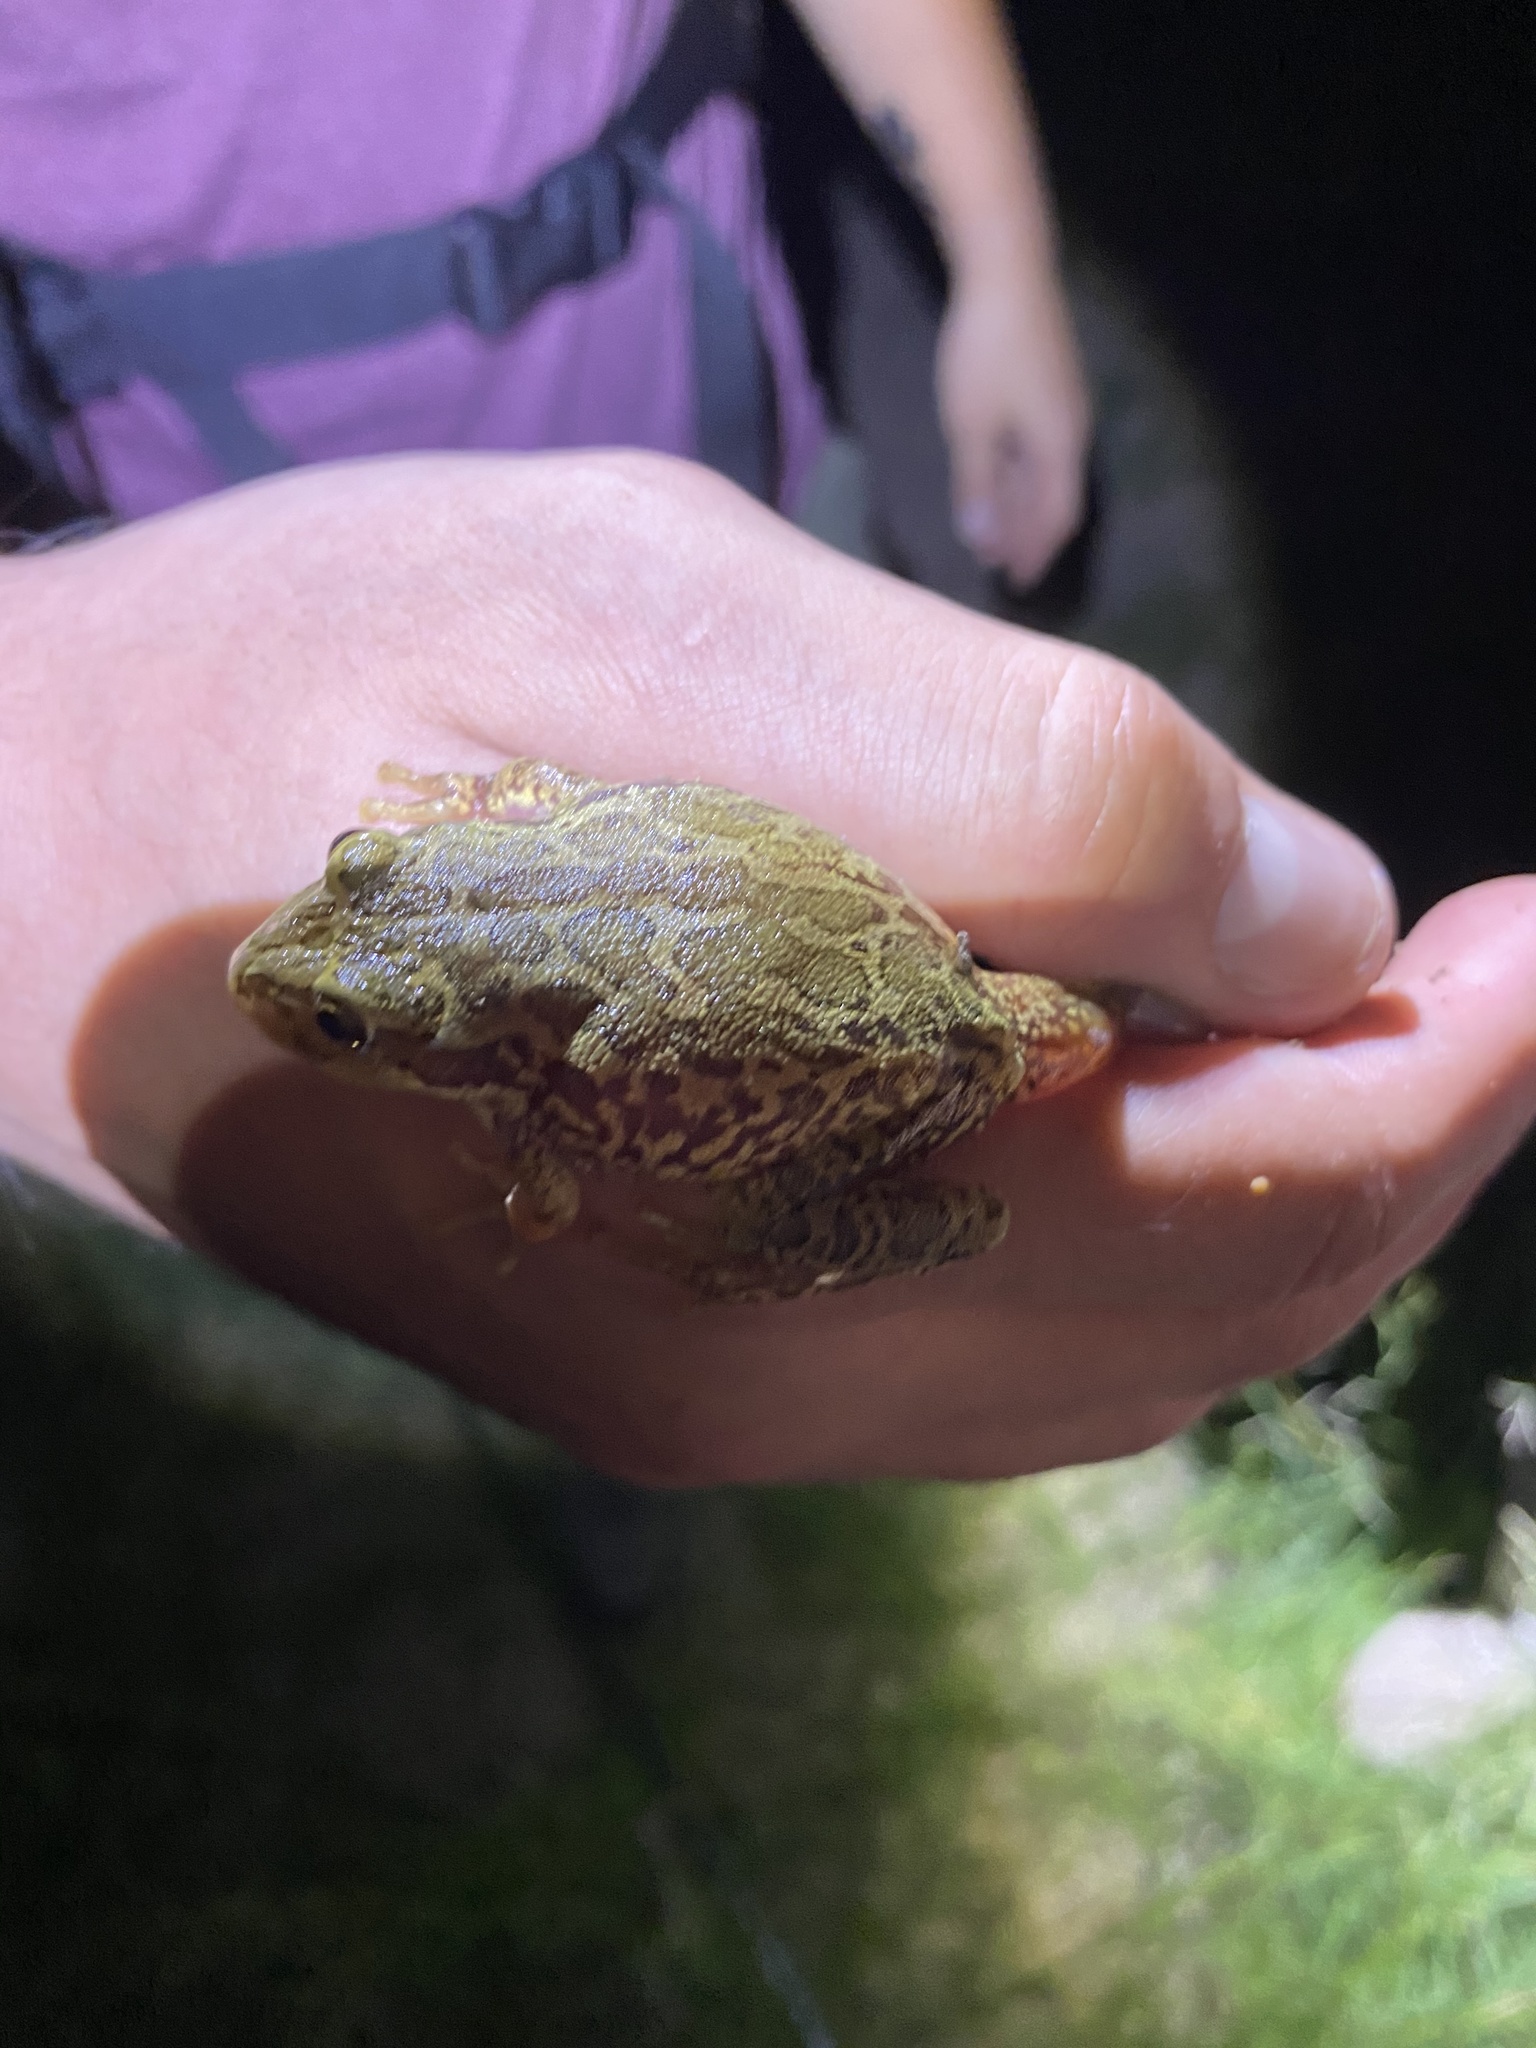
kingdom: Animalia
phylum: Chordata
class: Amphibia
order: Anura
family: Hylidae
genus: Smilisca
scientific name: Smilisca fodiens
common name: Lowland burrowing treefrog
